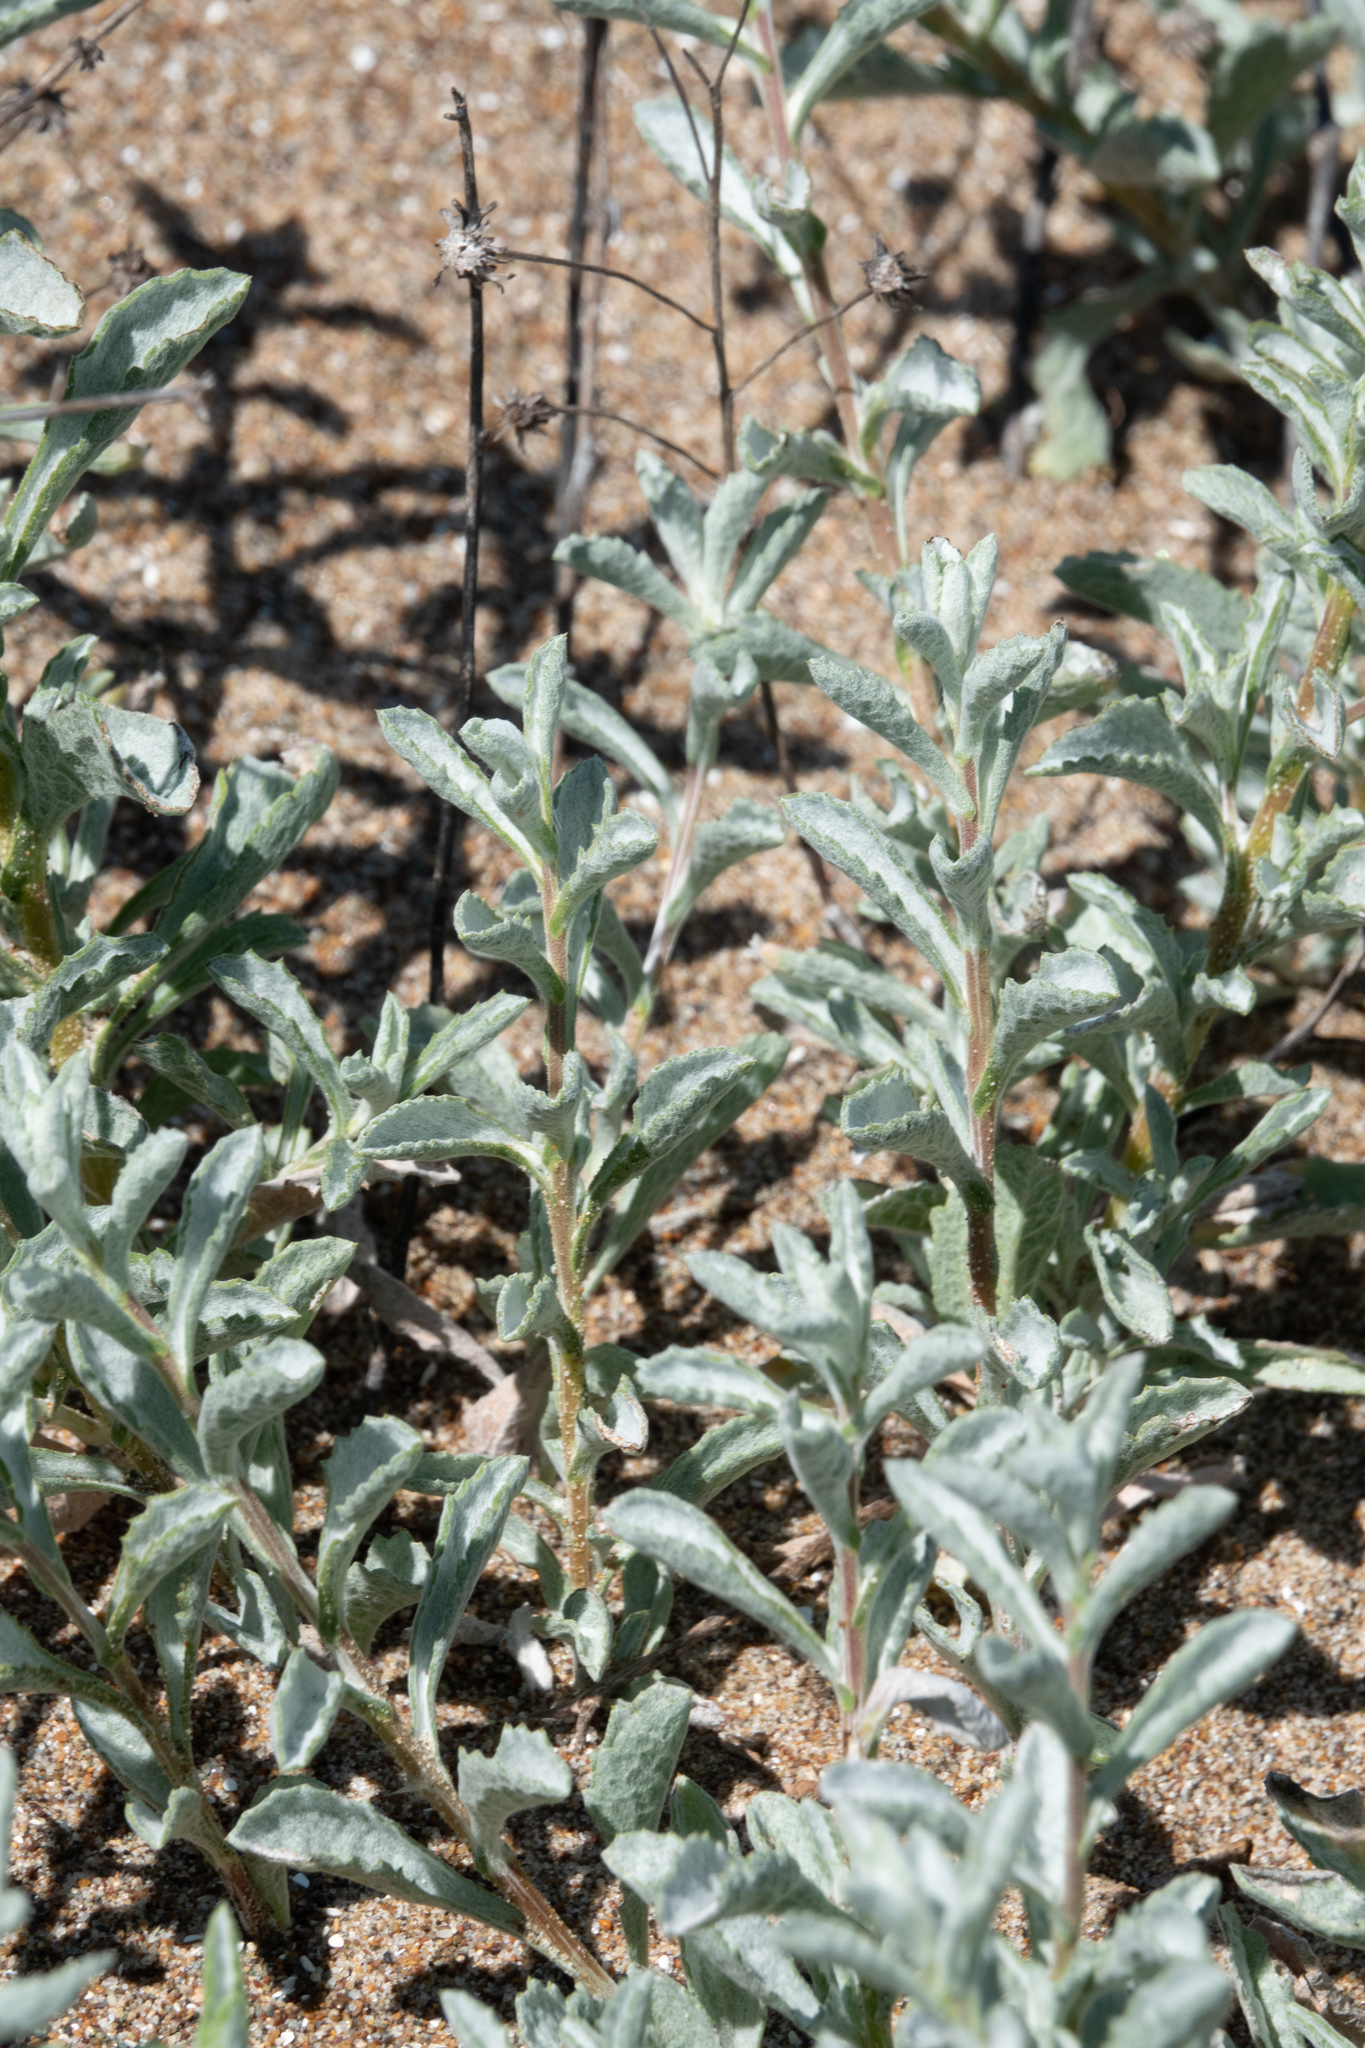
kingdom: Plantae
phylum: Tracheophyta
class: Magnoliopsida
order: Asterales
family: Asteraceae
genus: Corethrogyne
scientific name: Corethrogyne filaginifolia
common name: Sand-aster
